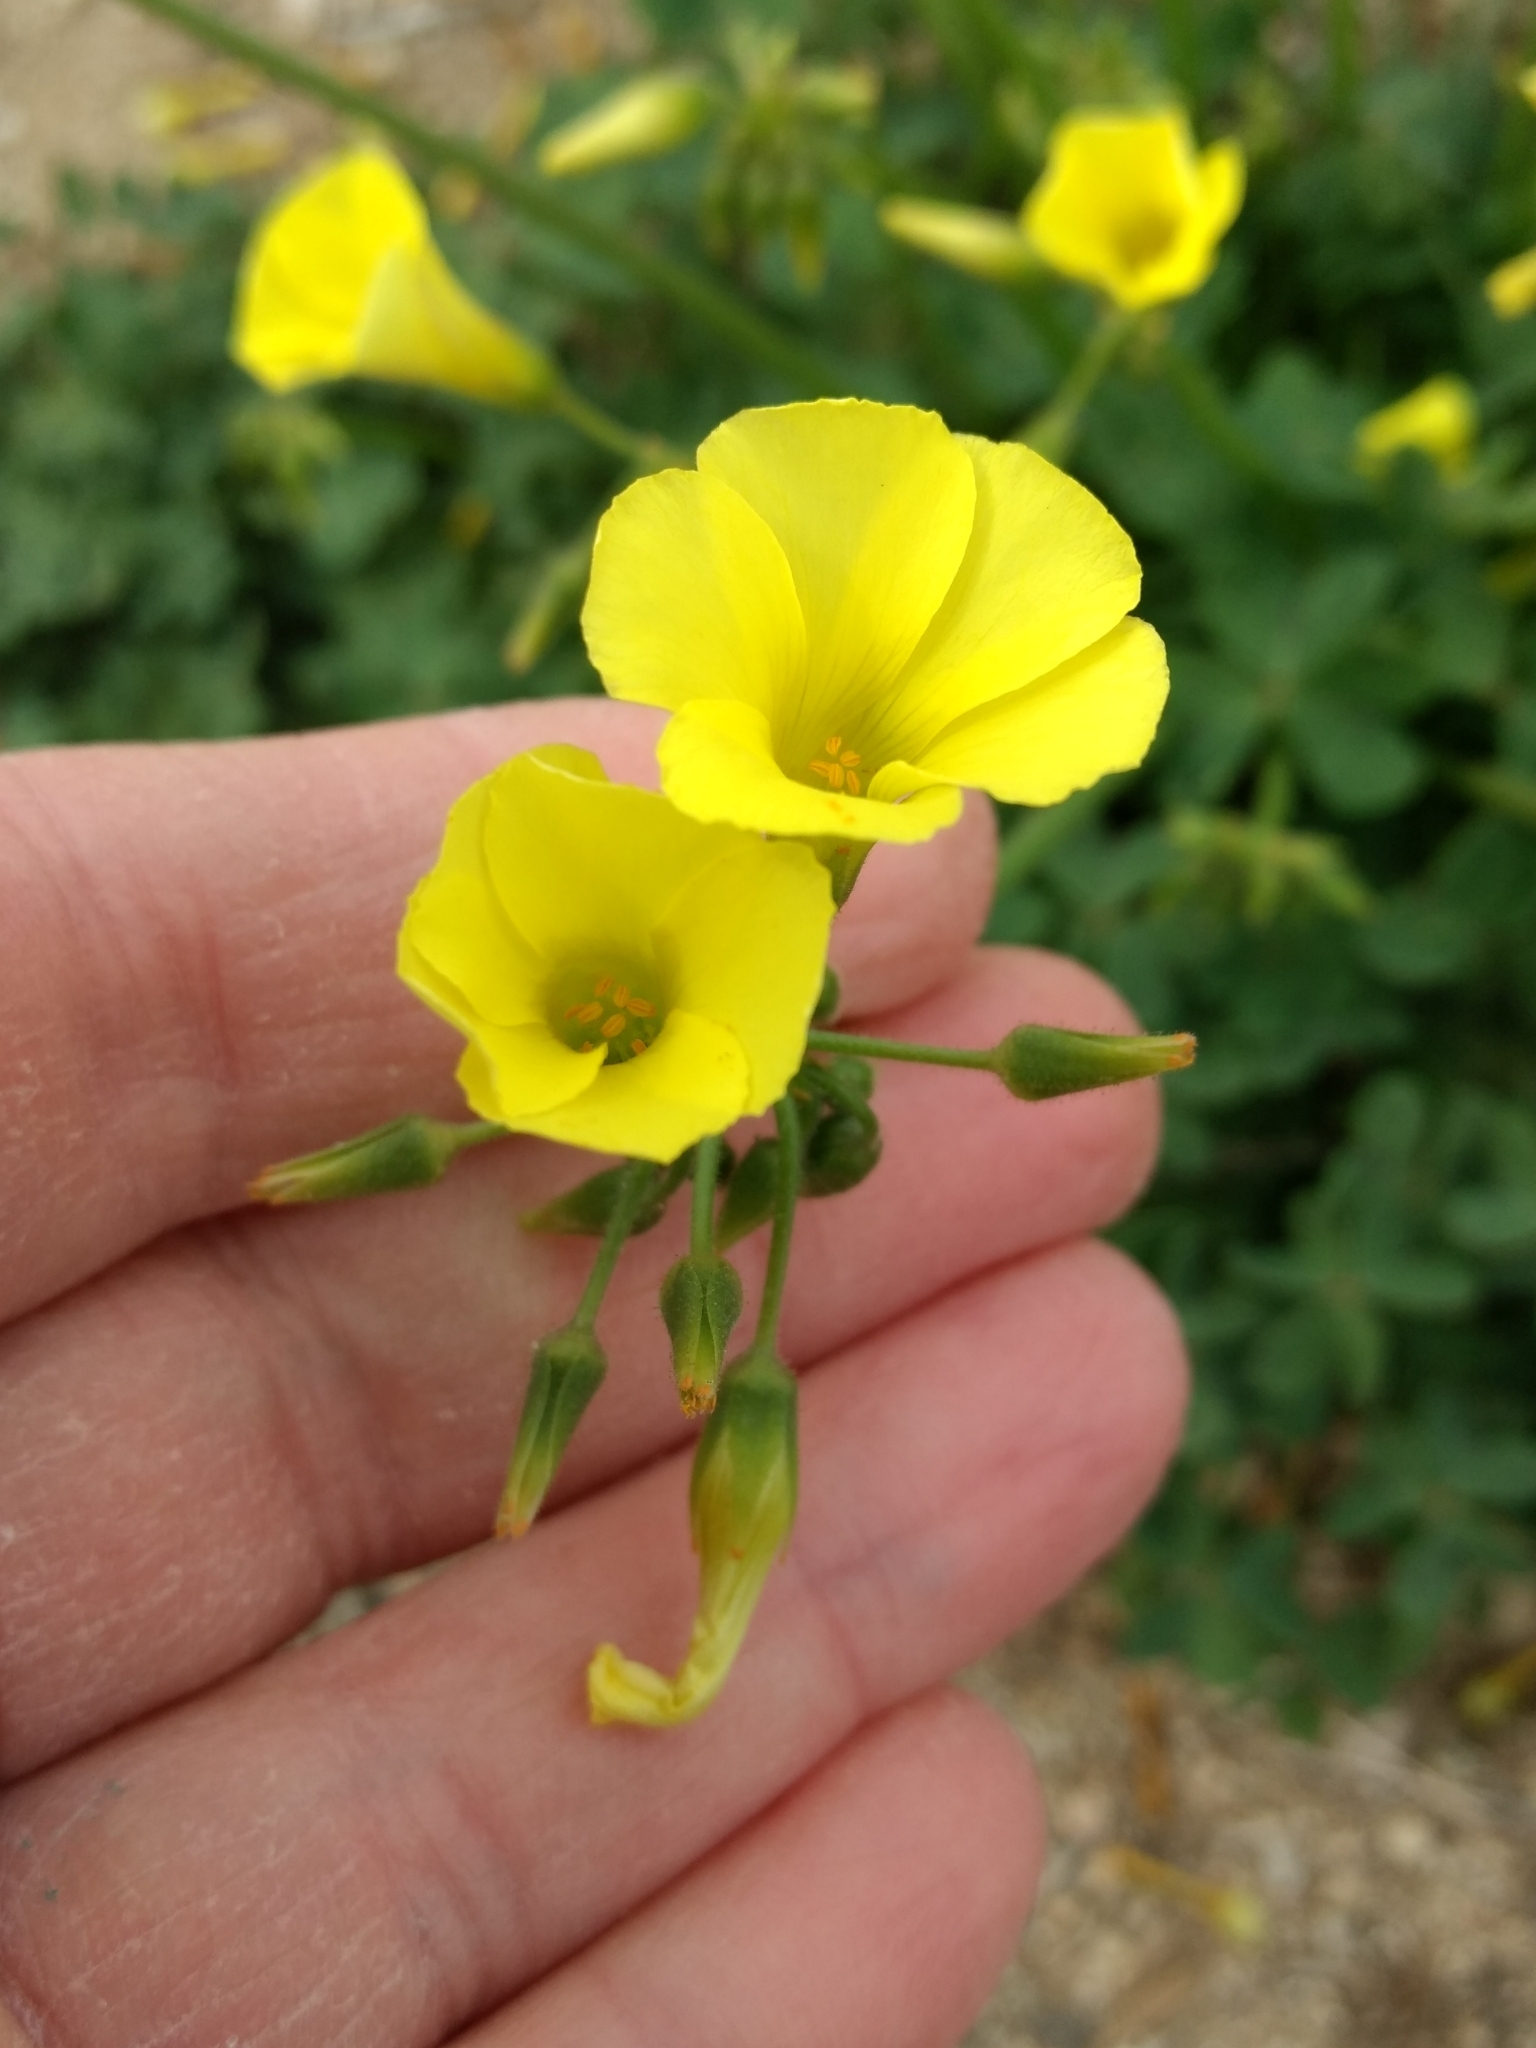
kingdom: Plantae
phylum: Tracheophyta
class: Magnoliopsida
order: Oxalidales
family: Oxalidaceae
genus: Oxalis
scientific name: Oxalis pes-caprae
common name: Bermuda-buttercup
